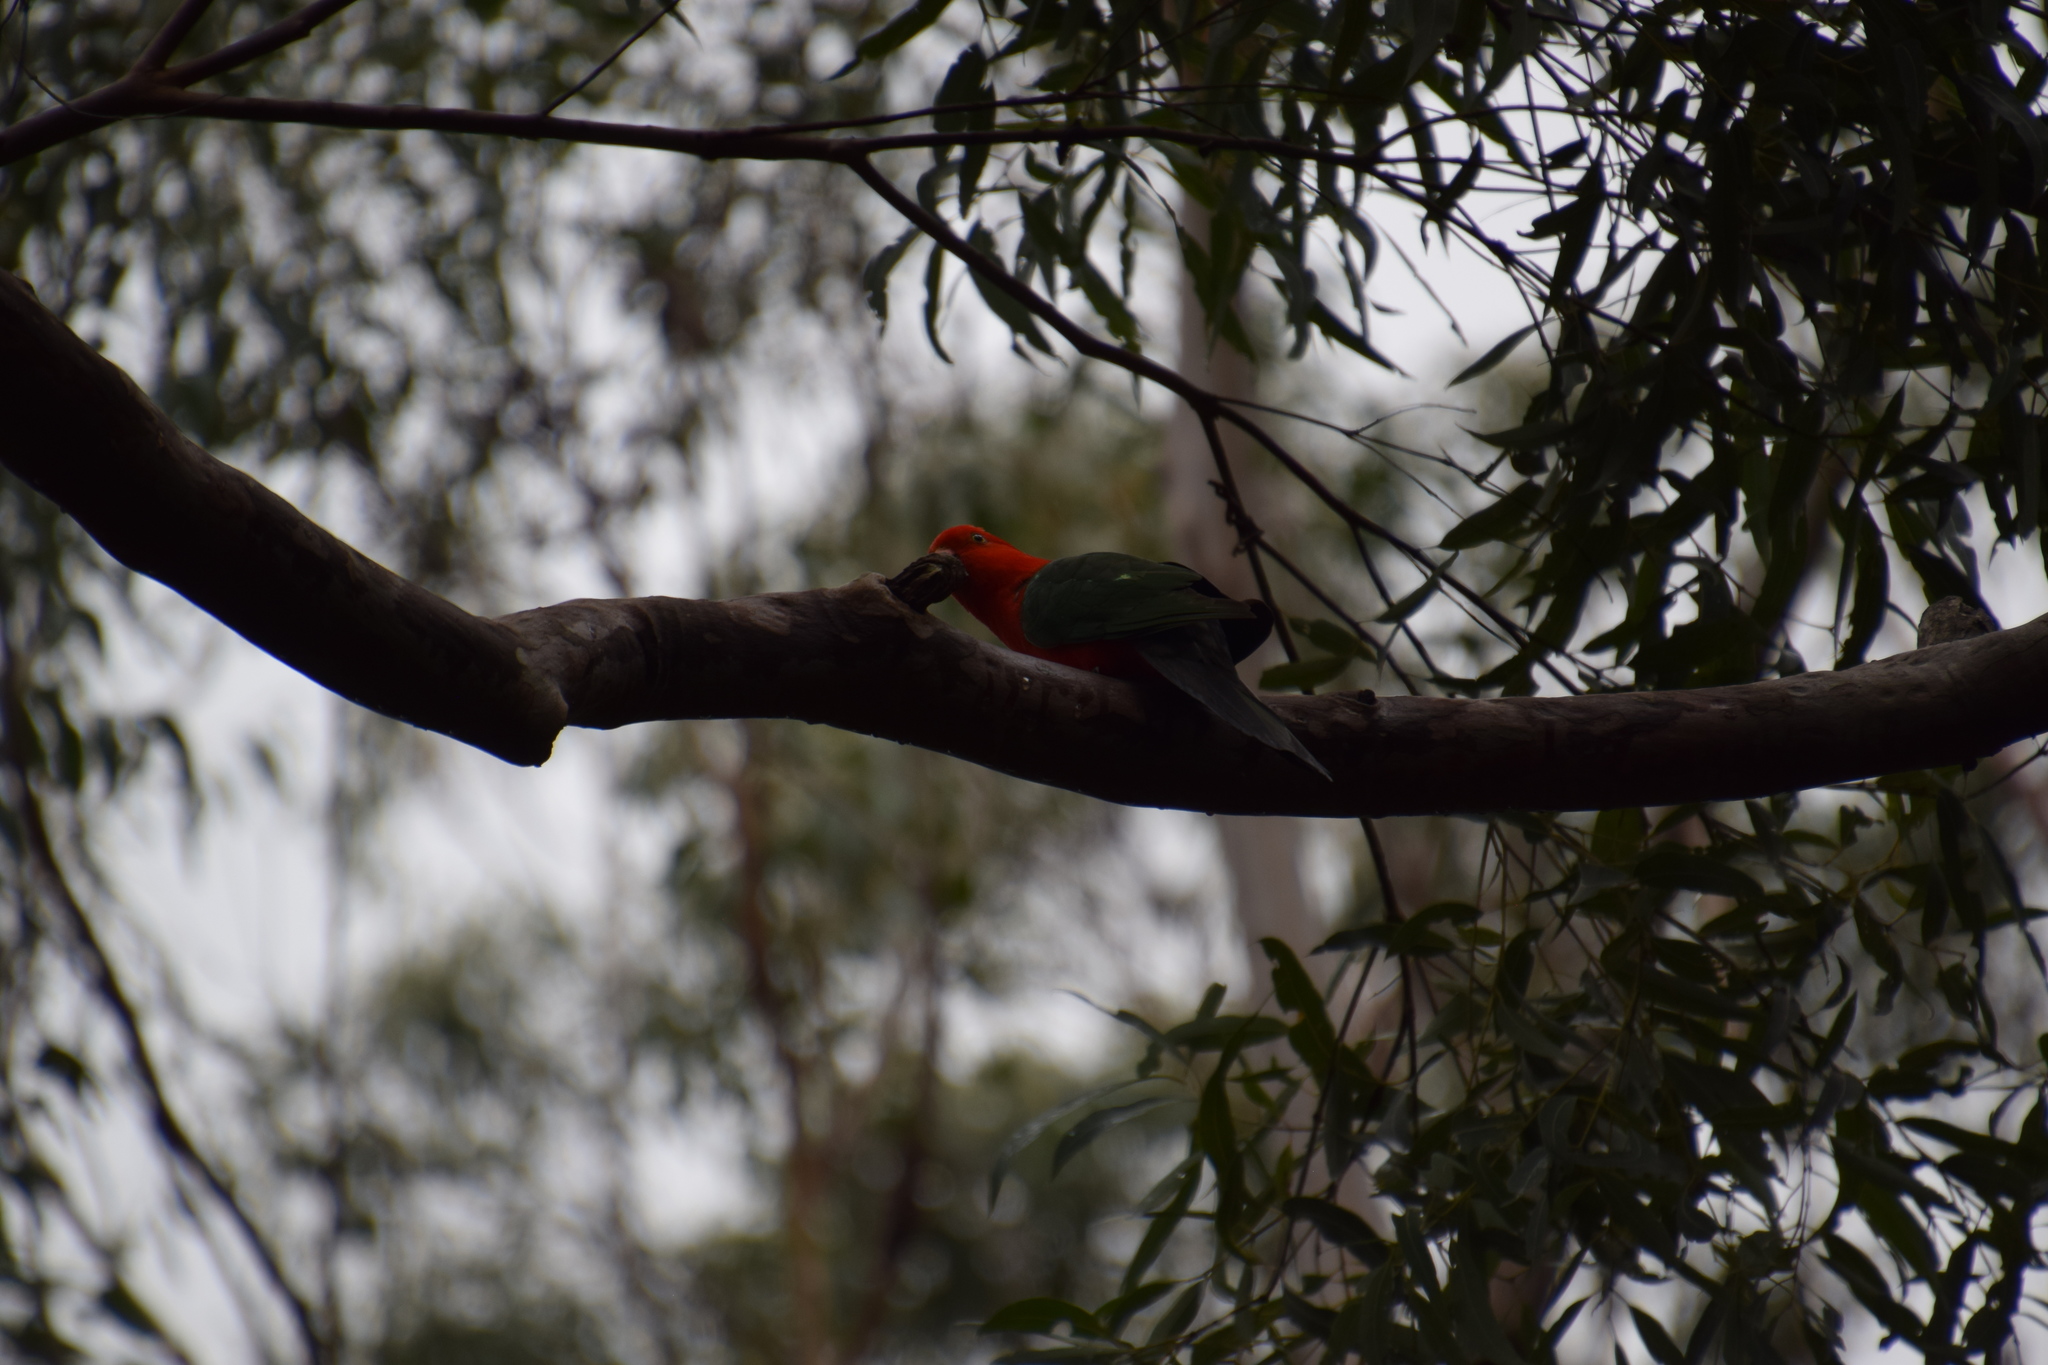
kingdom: Animalia
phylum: Chordata
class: Aves
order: Psittaciformes
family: Psittacidae
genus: Alisterus
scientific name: Alisterus scapularis
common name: Australian king parrot
